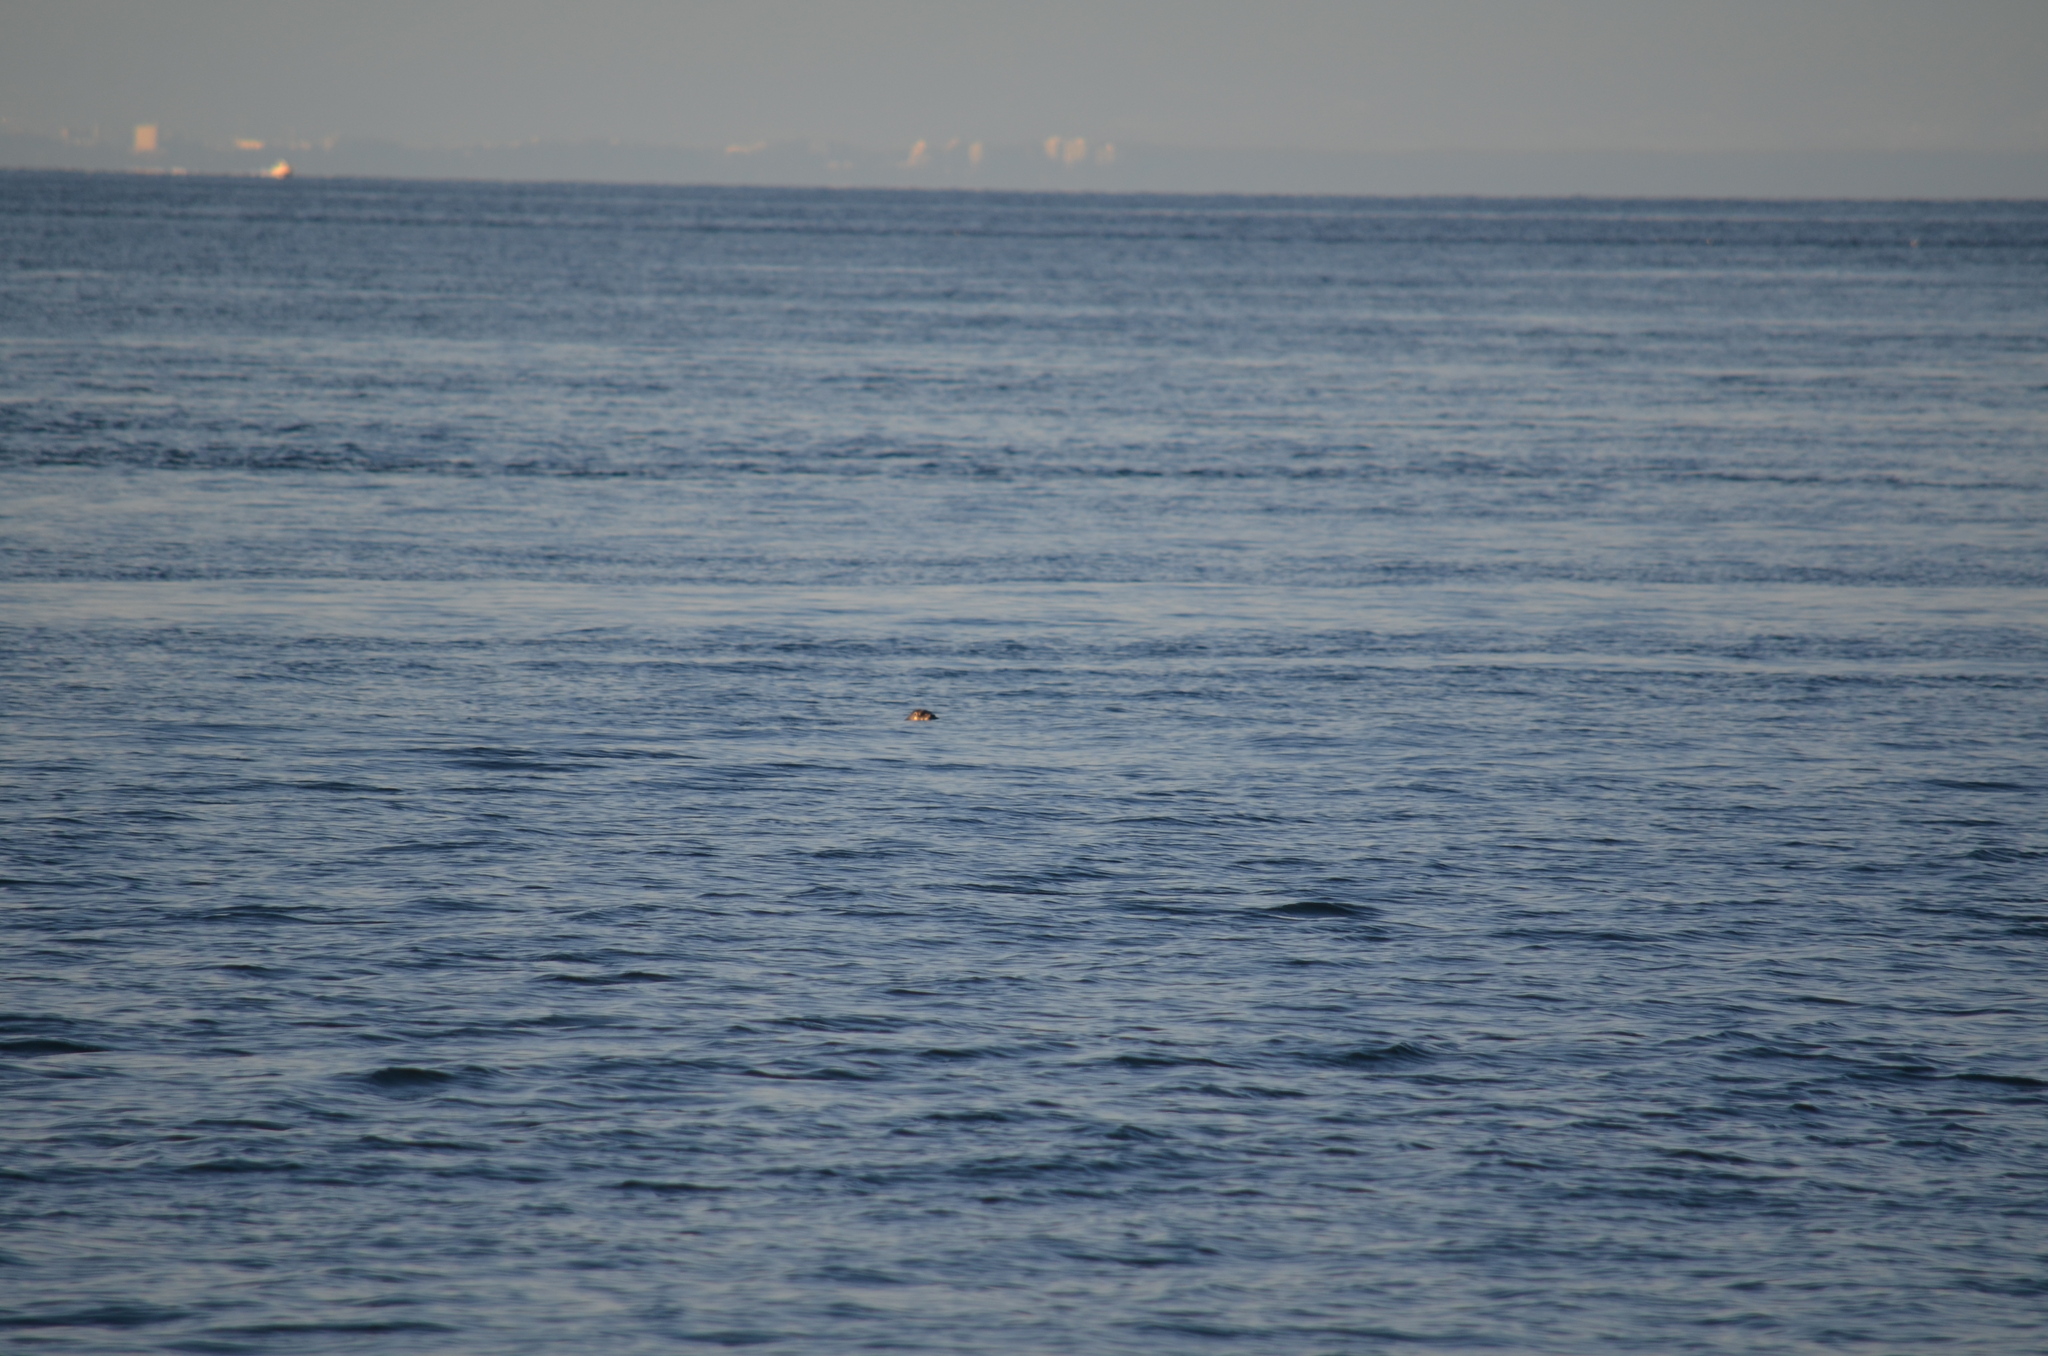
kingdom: Animalia
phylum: Chordata
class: Mammalia
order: Carnivora
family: Phocidae
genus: Phoca
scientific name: Phoca vitulina
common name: Harbor seal
